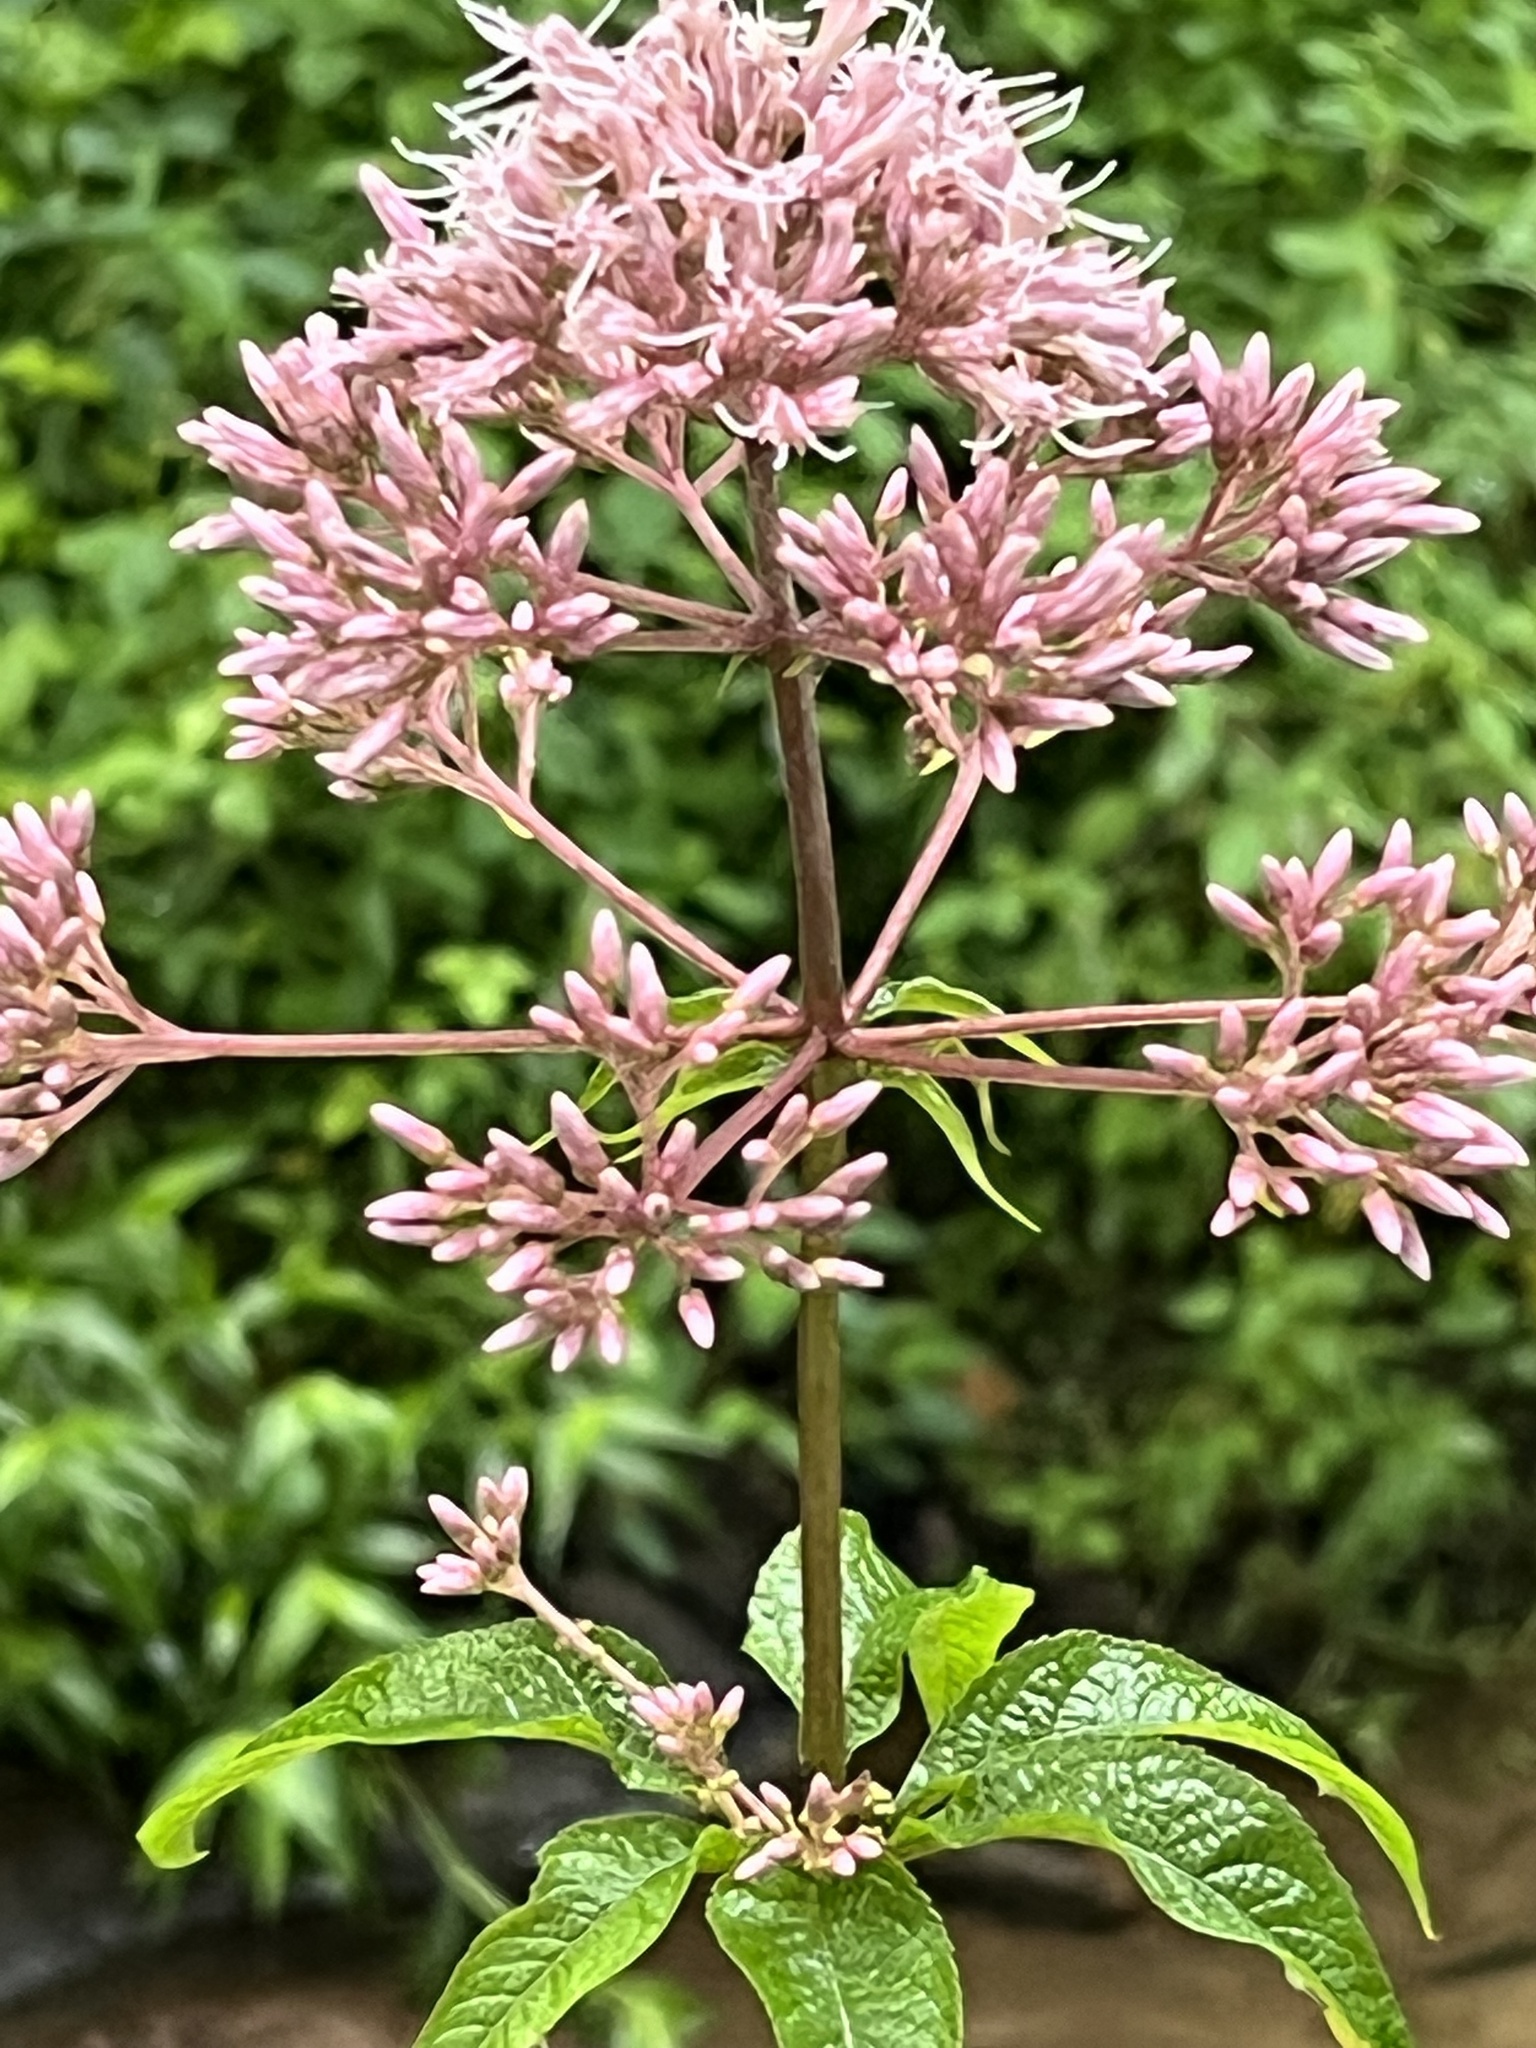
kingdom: Plantae
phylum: Tracheophyta
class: Magnoliopsida
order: Asterales
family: Asteraceae
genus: Eutrochium
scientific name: Eutrochium fistulosum
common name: Trumpetweed
